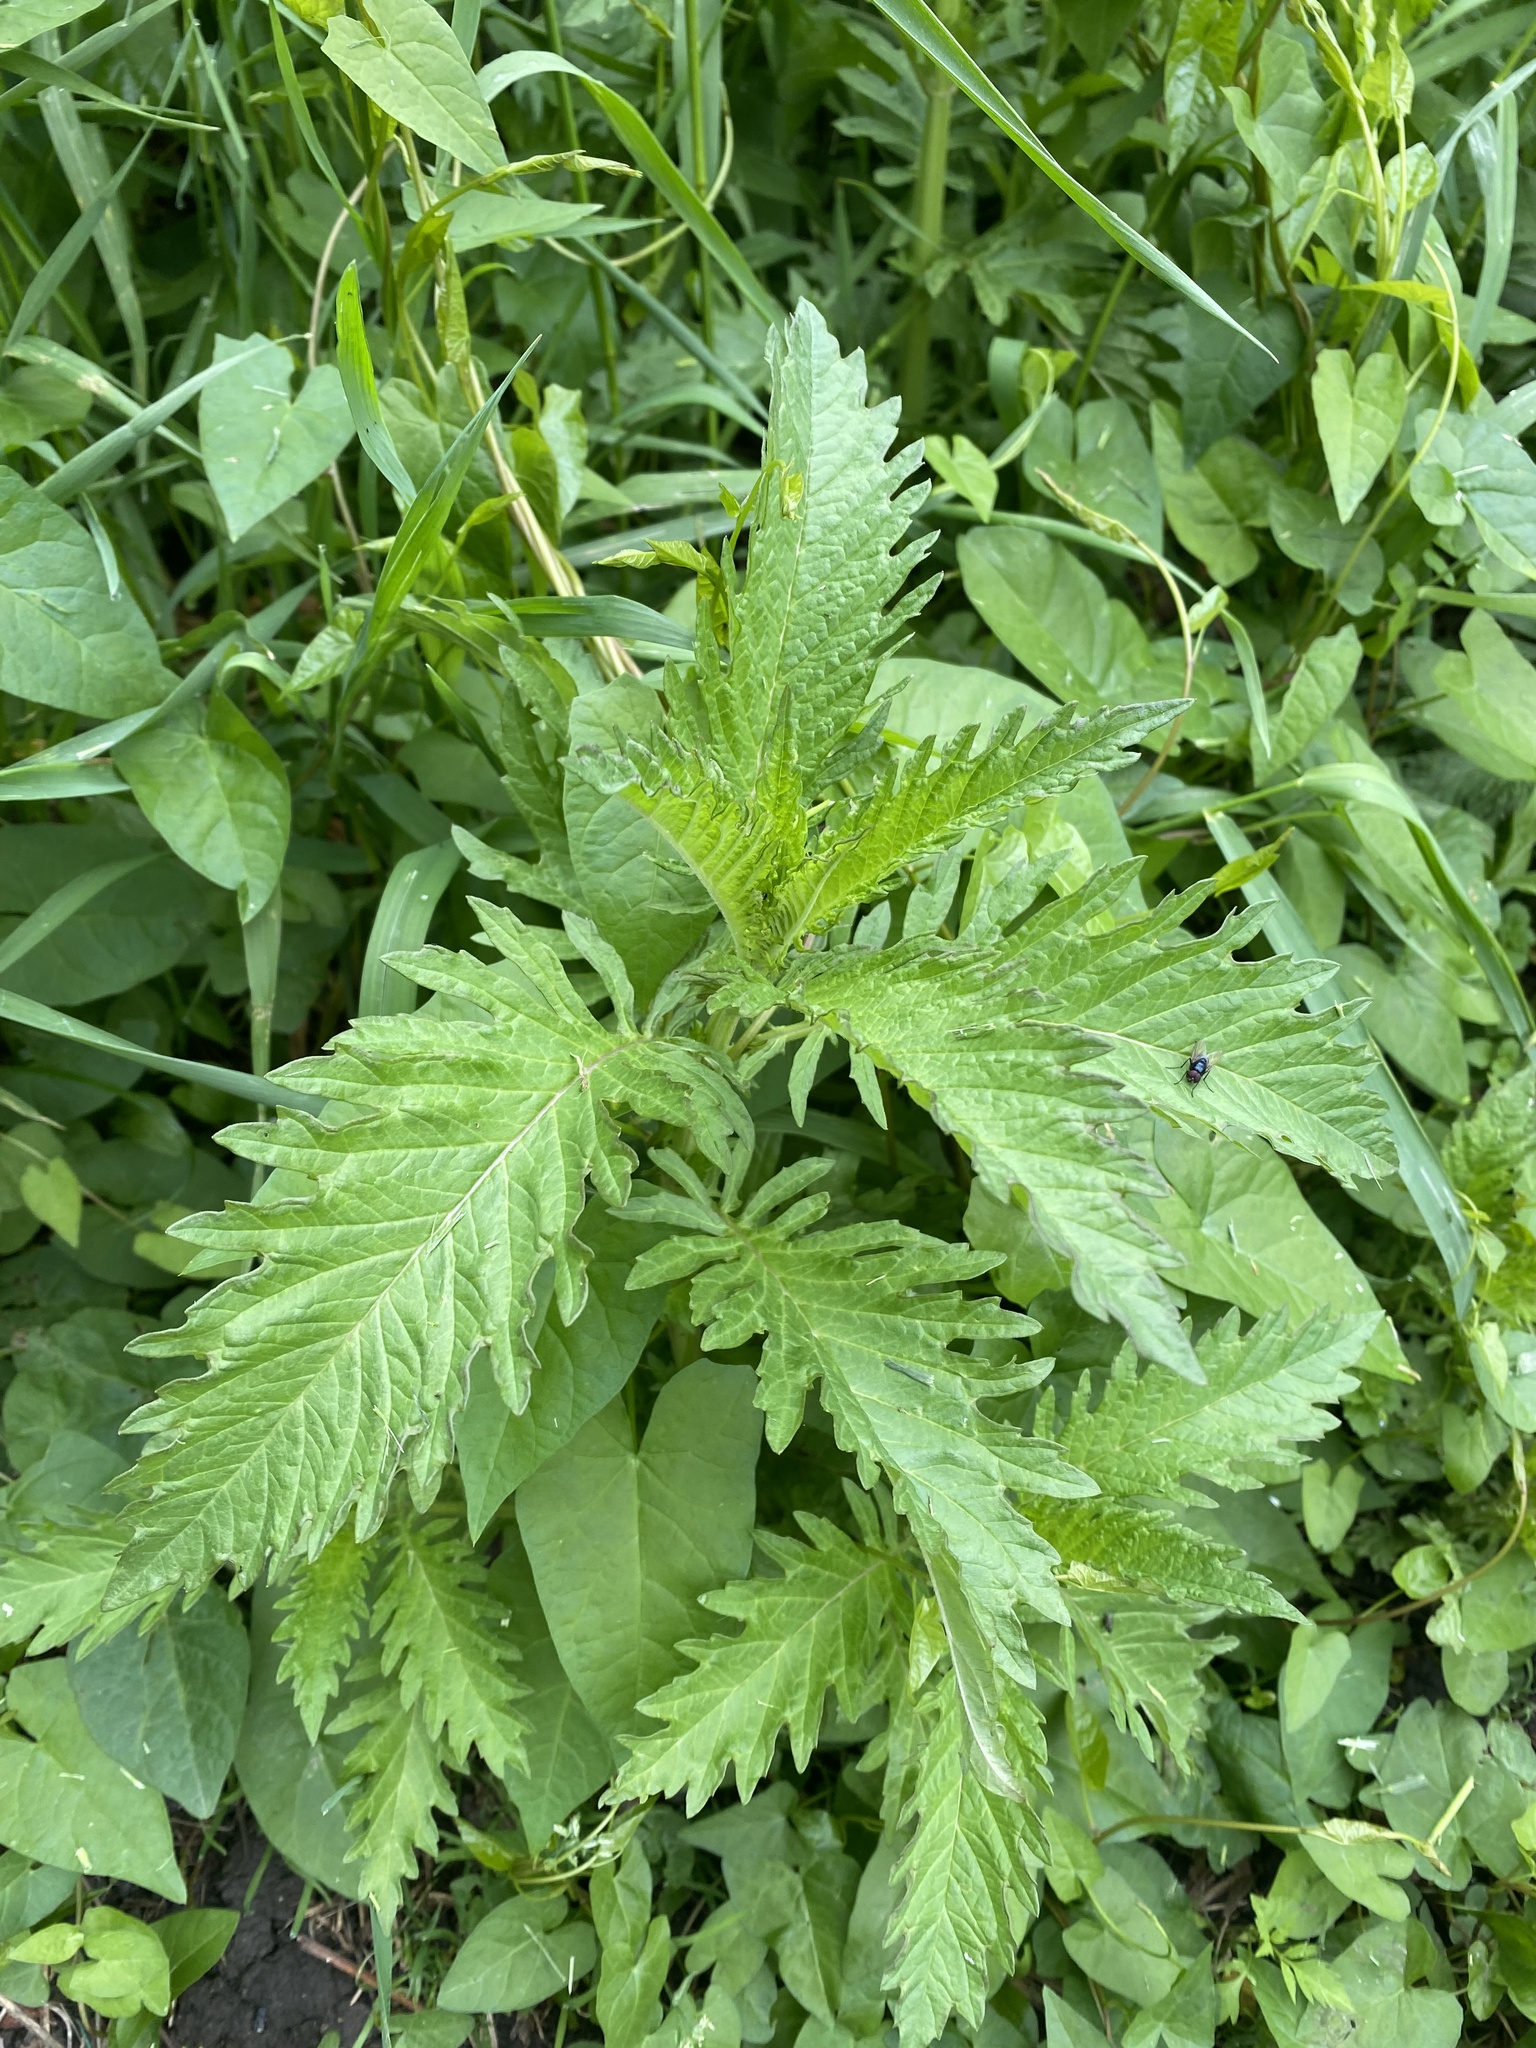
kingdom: Plantae
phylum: Tracheophyta
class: Magnoliopsida
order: Lamiales
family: Lamiaceae
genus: Lycopus
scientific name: Lycopus europaeus
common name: European bugleweed
